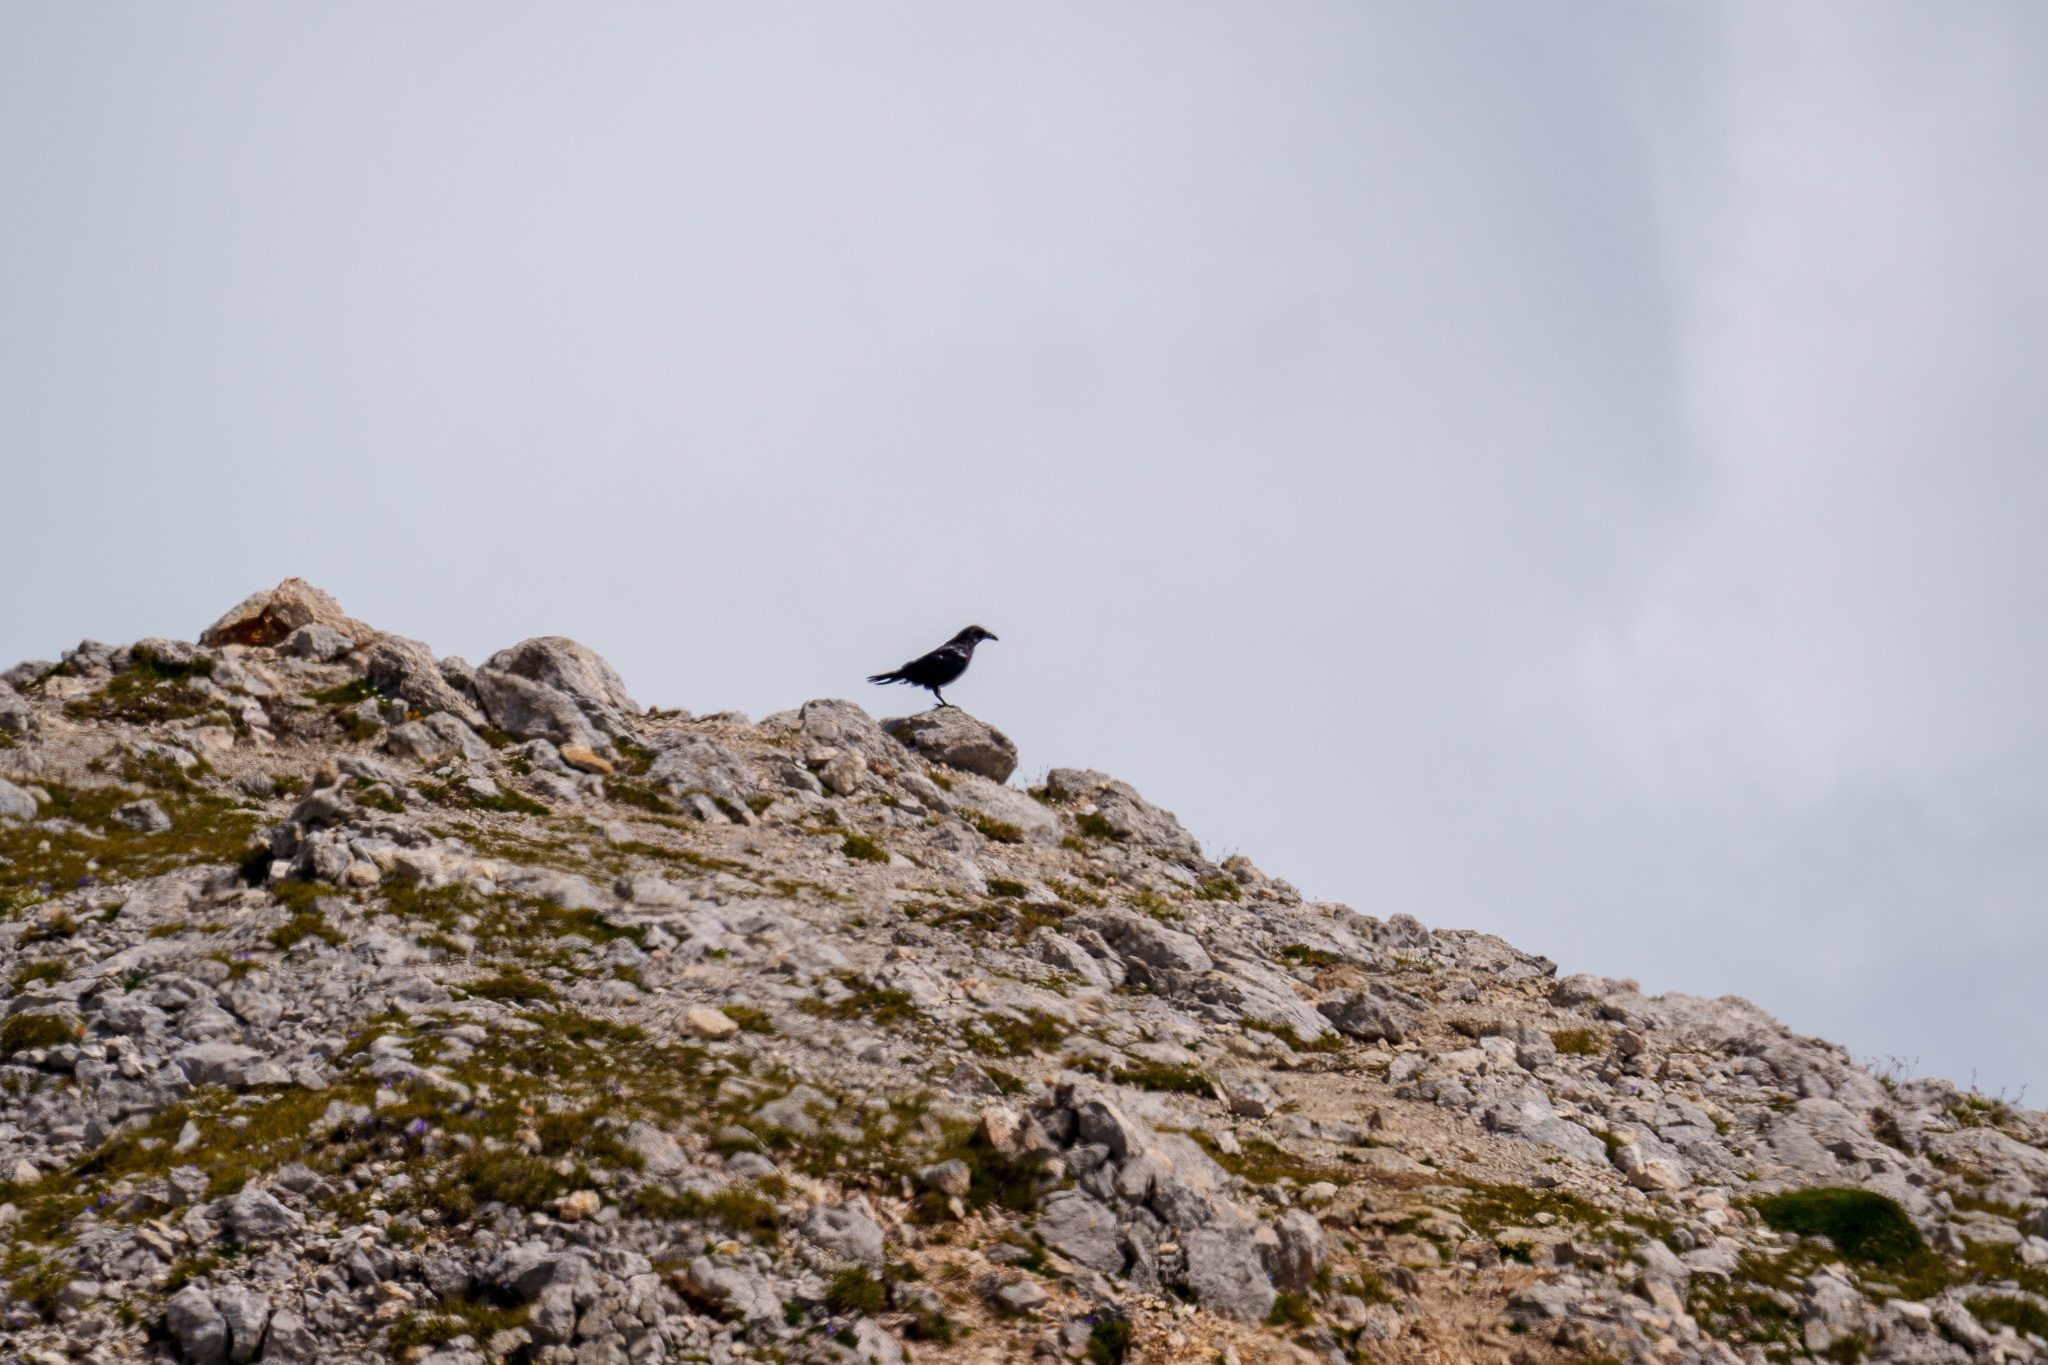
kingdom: Animalia
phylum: Chordata
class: Aves
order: Passeriformes
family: Corvidae
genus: Corvus
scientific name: Corvus corax
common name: Common raven
